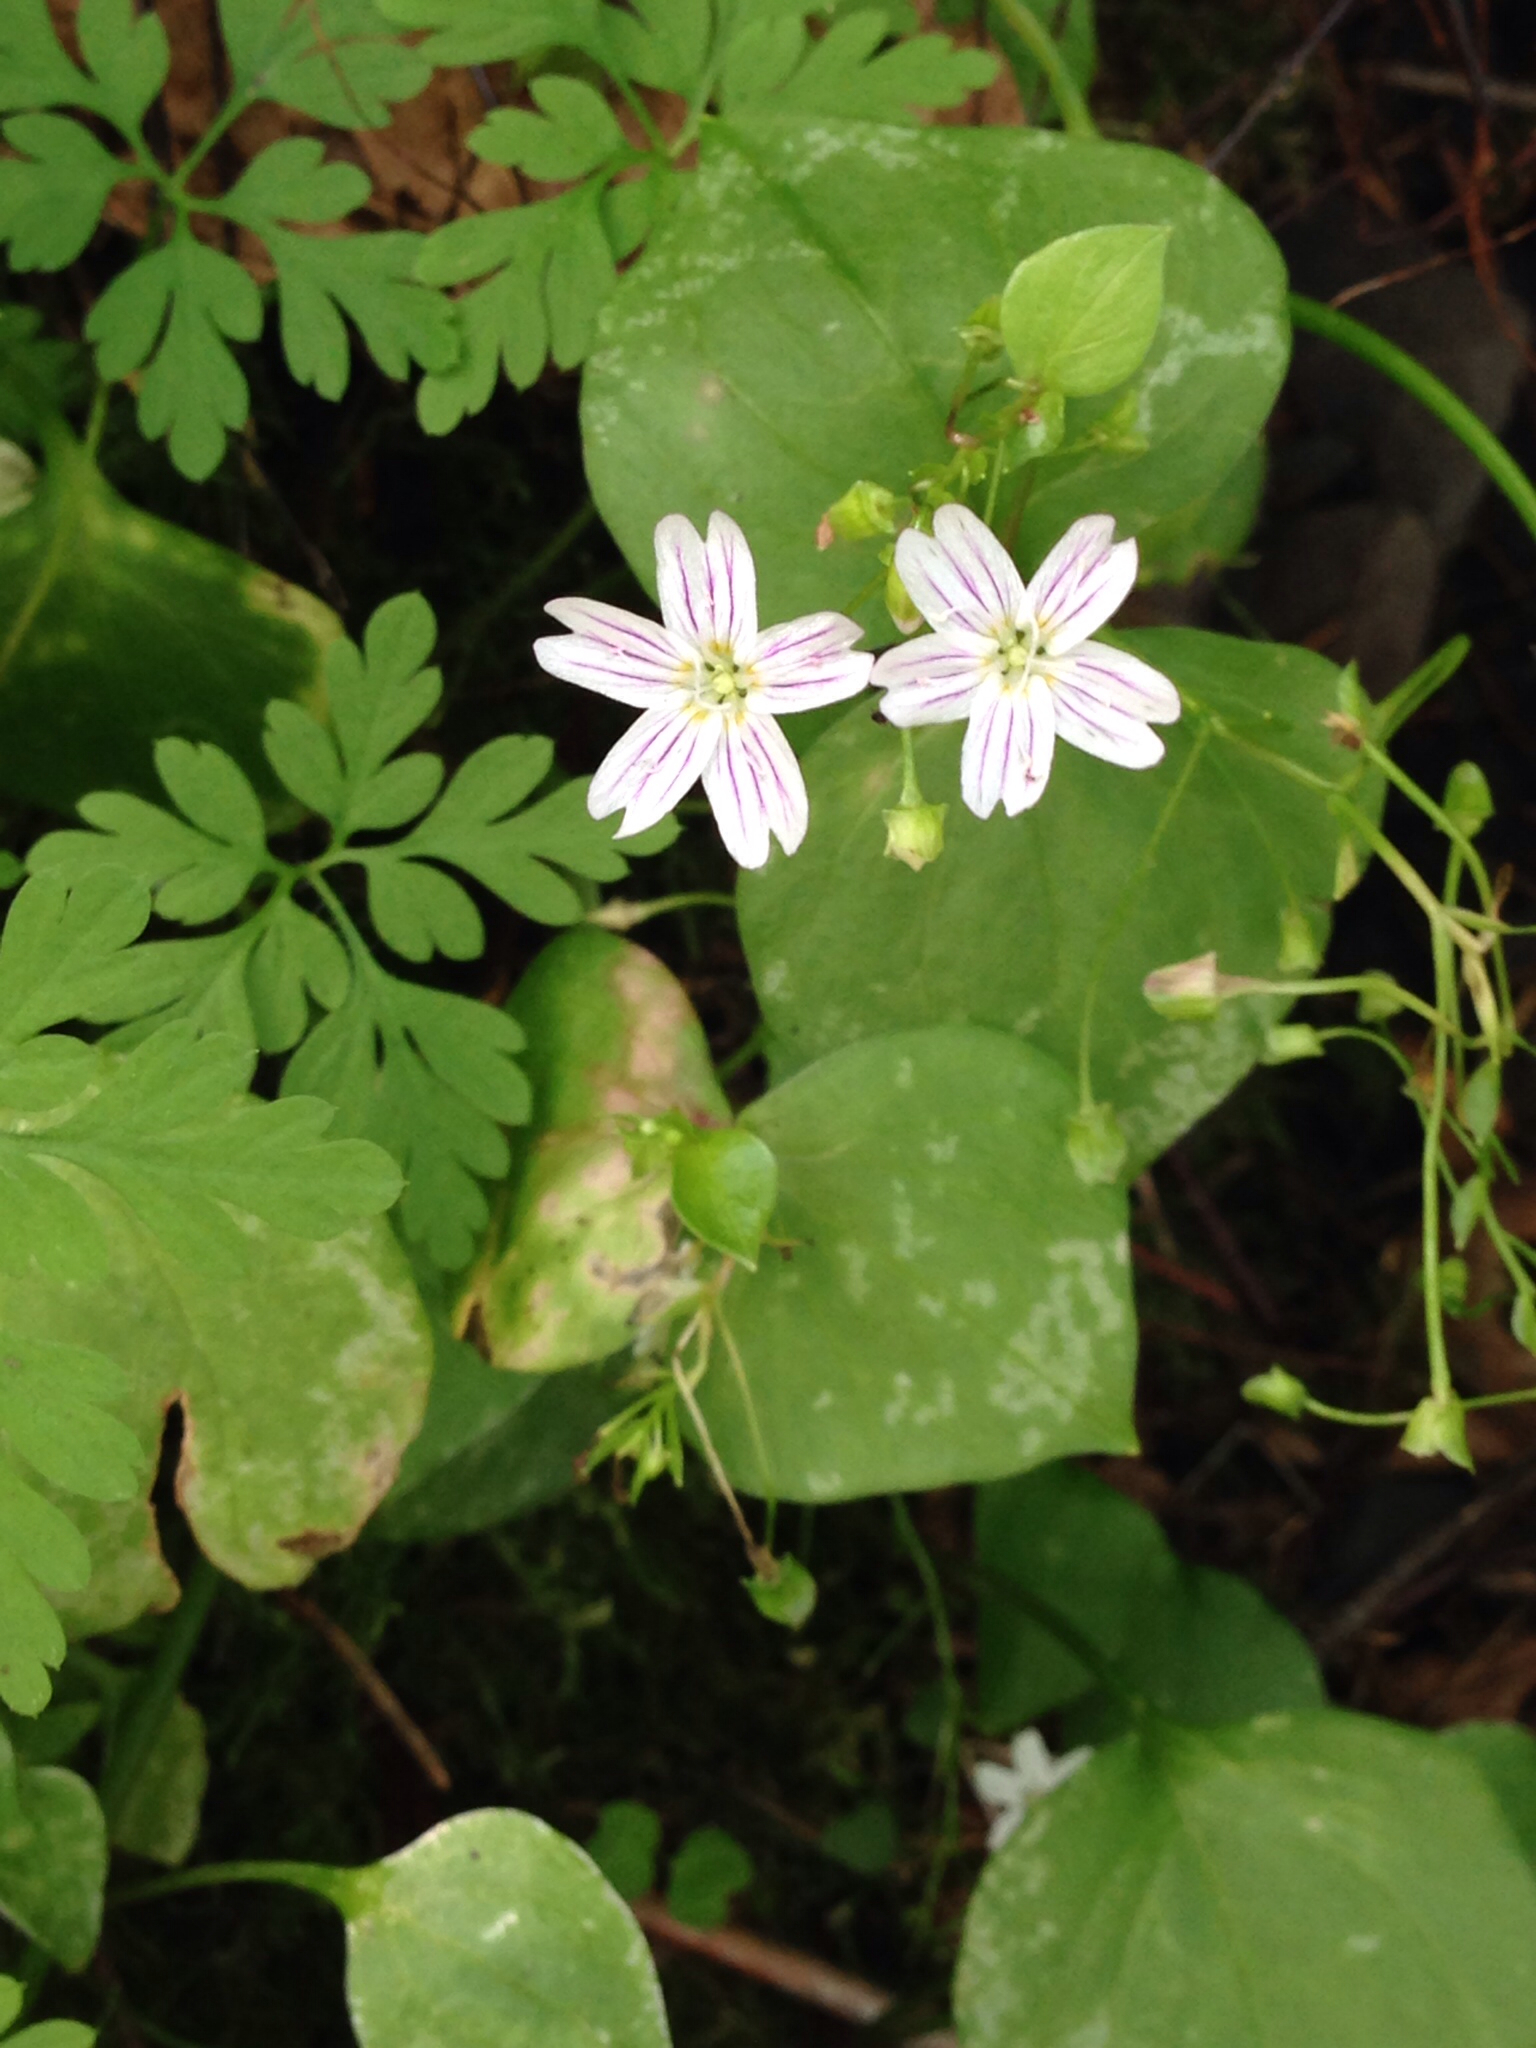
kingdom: Plantae
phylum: Tracheophyta
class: Magnoliopsida
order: Caryophyllales
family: Montiaceae
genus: Claytonia
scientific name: Claytonia sibirica
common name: Pink purslane
